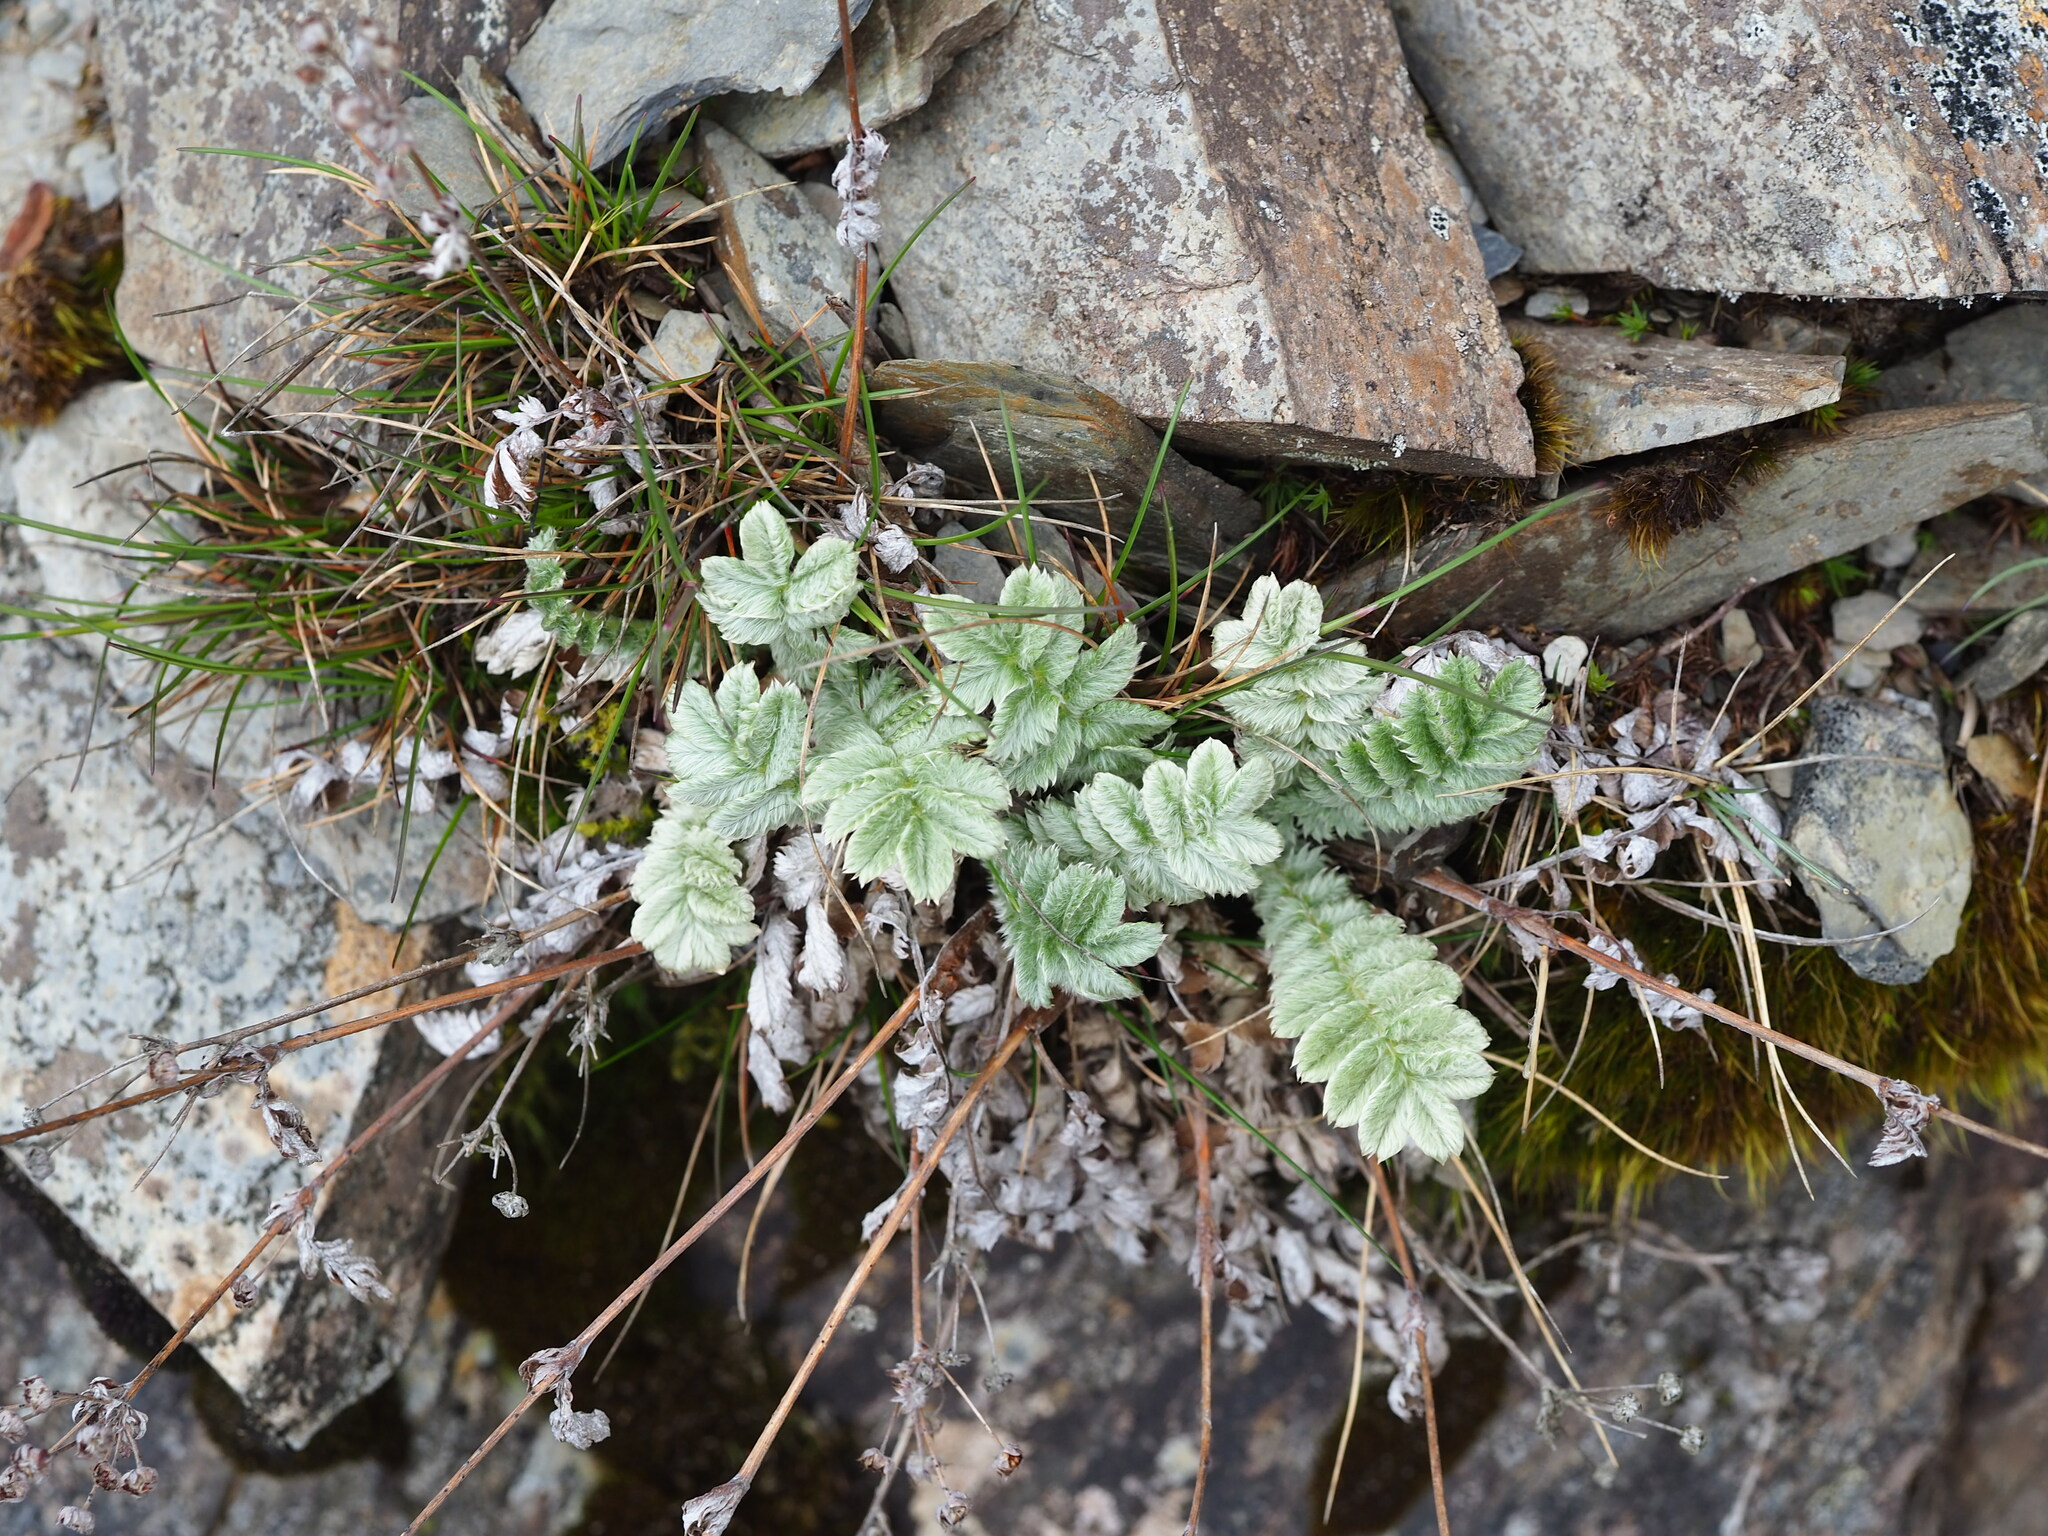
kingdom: Plantae
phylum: Tracheophyta
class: Magnoliopsida
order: Rosales
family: Rosaceae
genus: Argentina
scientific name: Argentina leuconota
